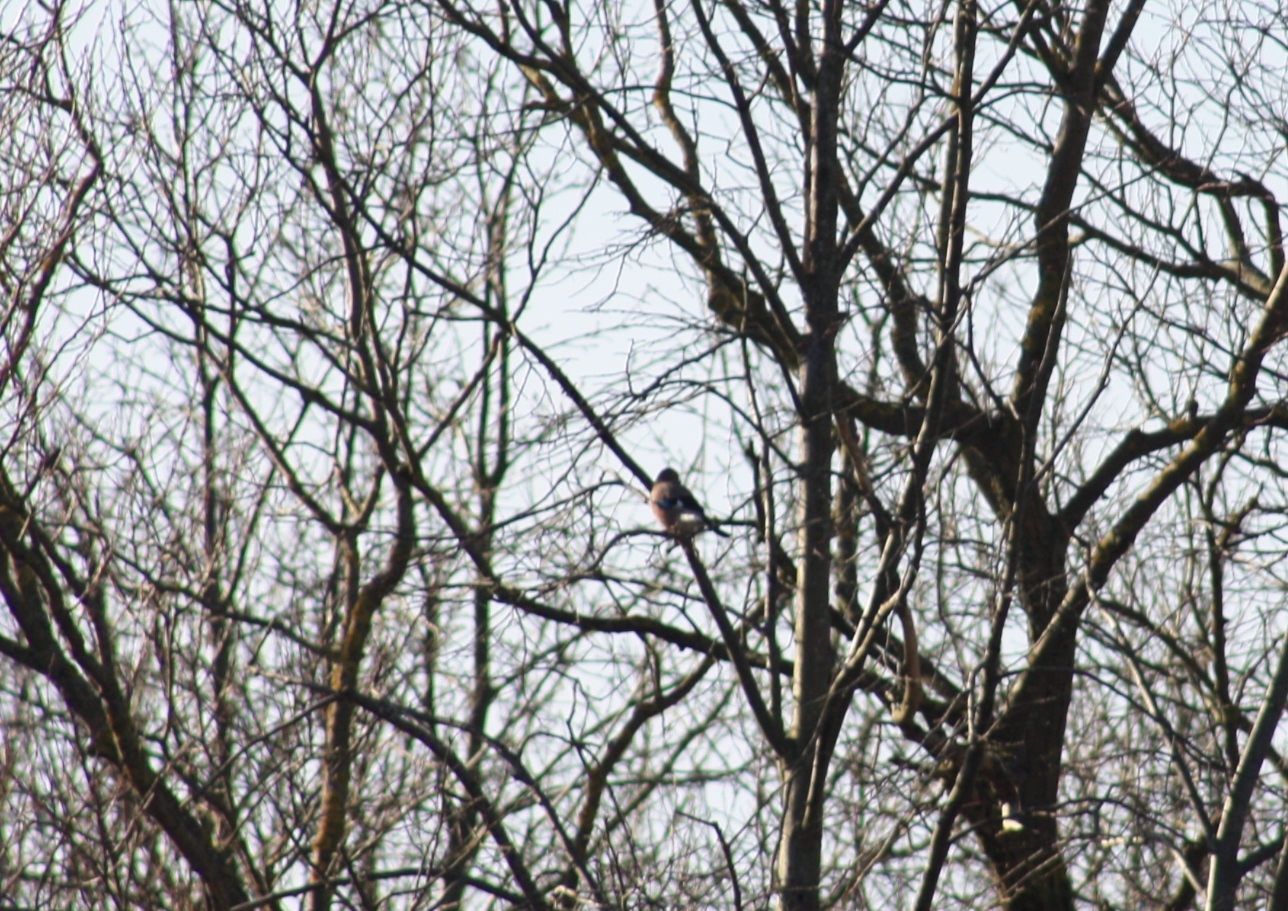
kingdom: Animalia
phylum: Chordata
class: Aves
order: Passeriformes
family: Corvidae
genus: Garrulus
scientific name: Garrulus glandarius
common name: Eurasian jay
